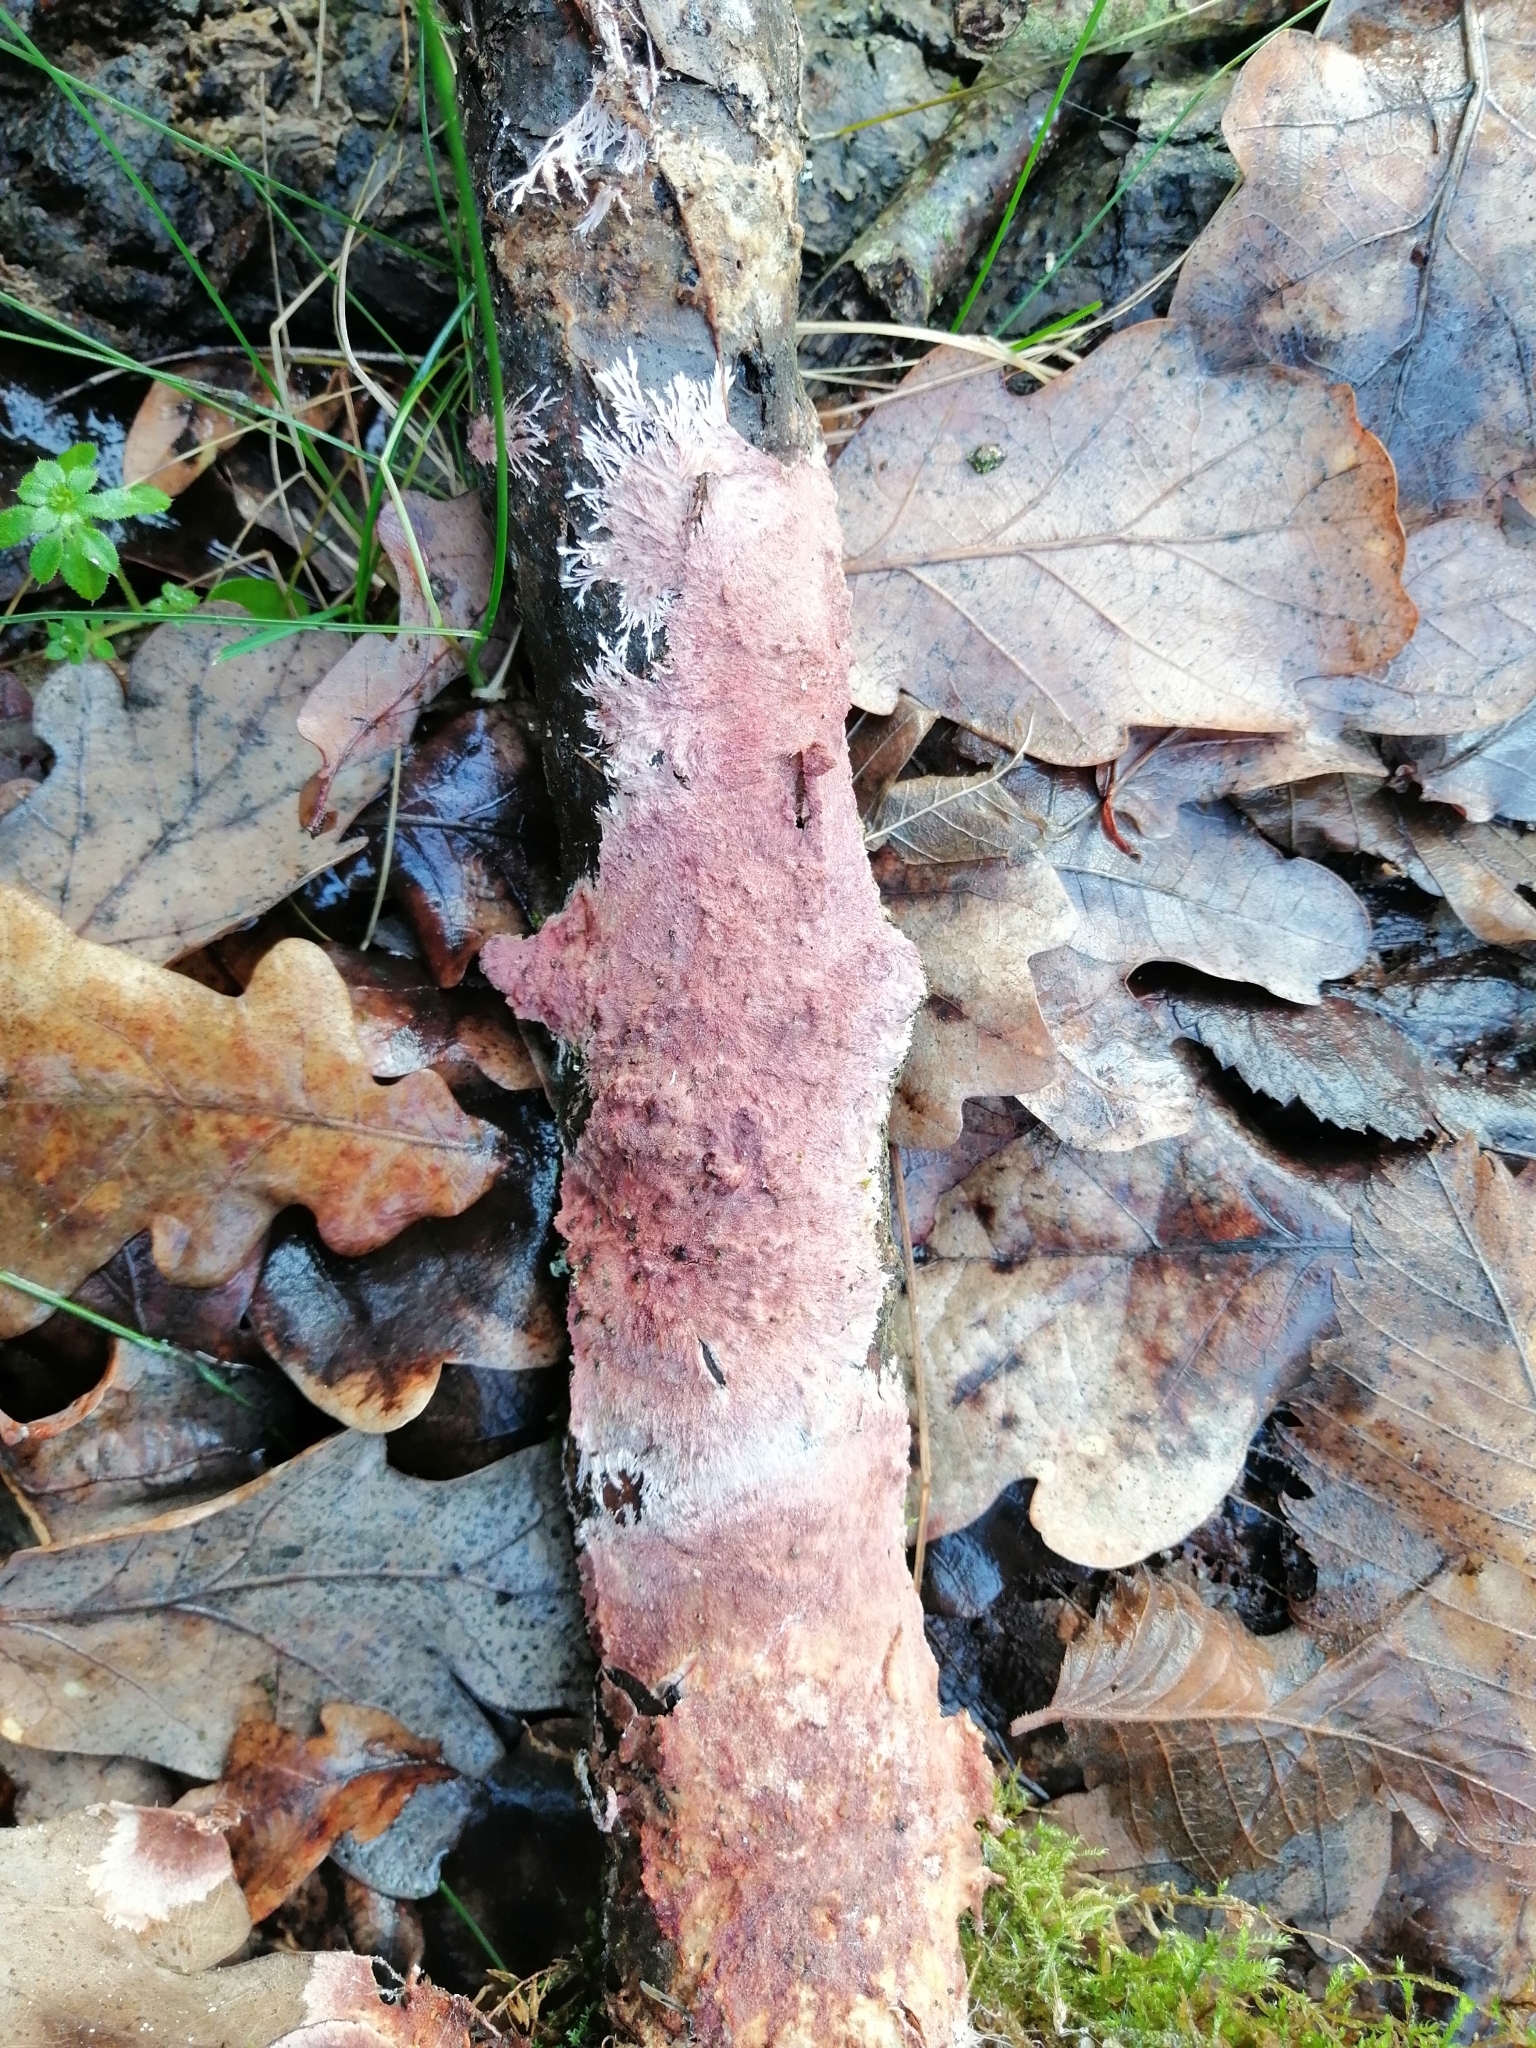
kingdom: Fungi
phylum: Basidiomycota
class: Agaricomycetes
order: Polyporales
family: Steccherinaceae
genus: Steccherinum
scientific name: Steccherinum fimbriatum
